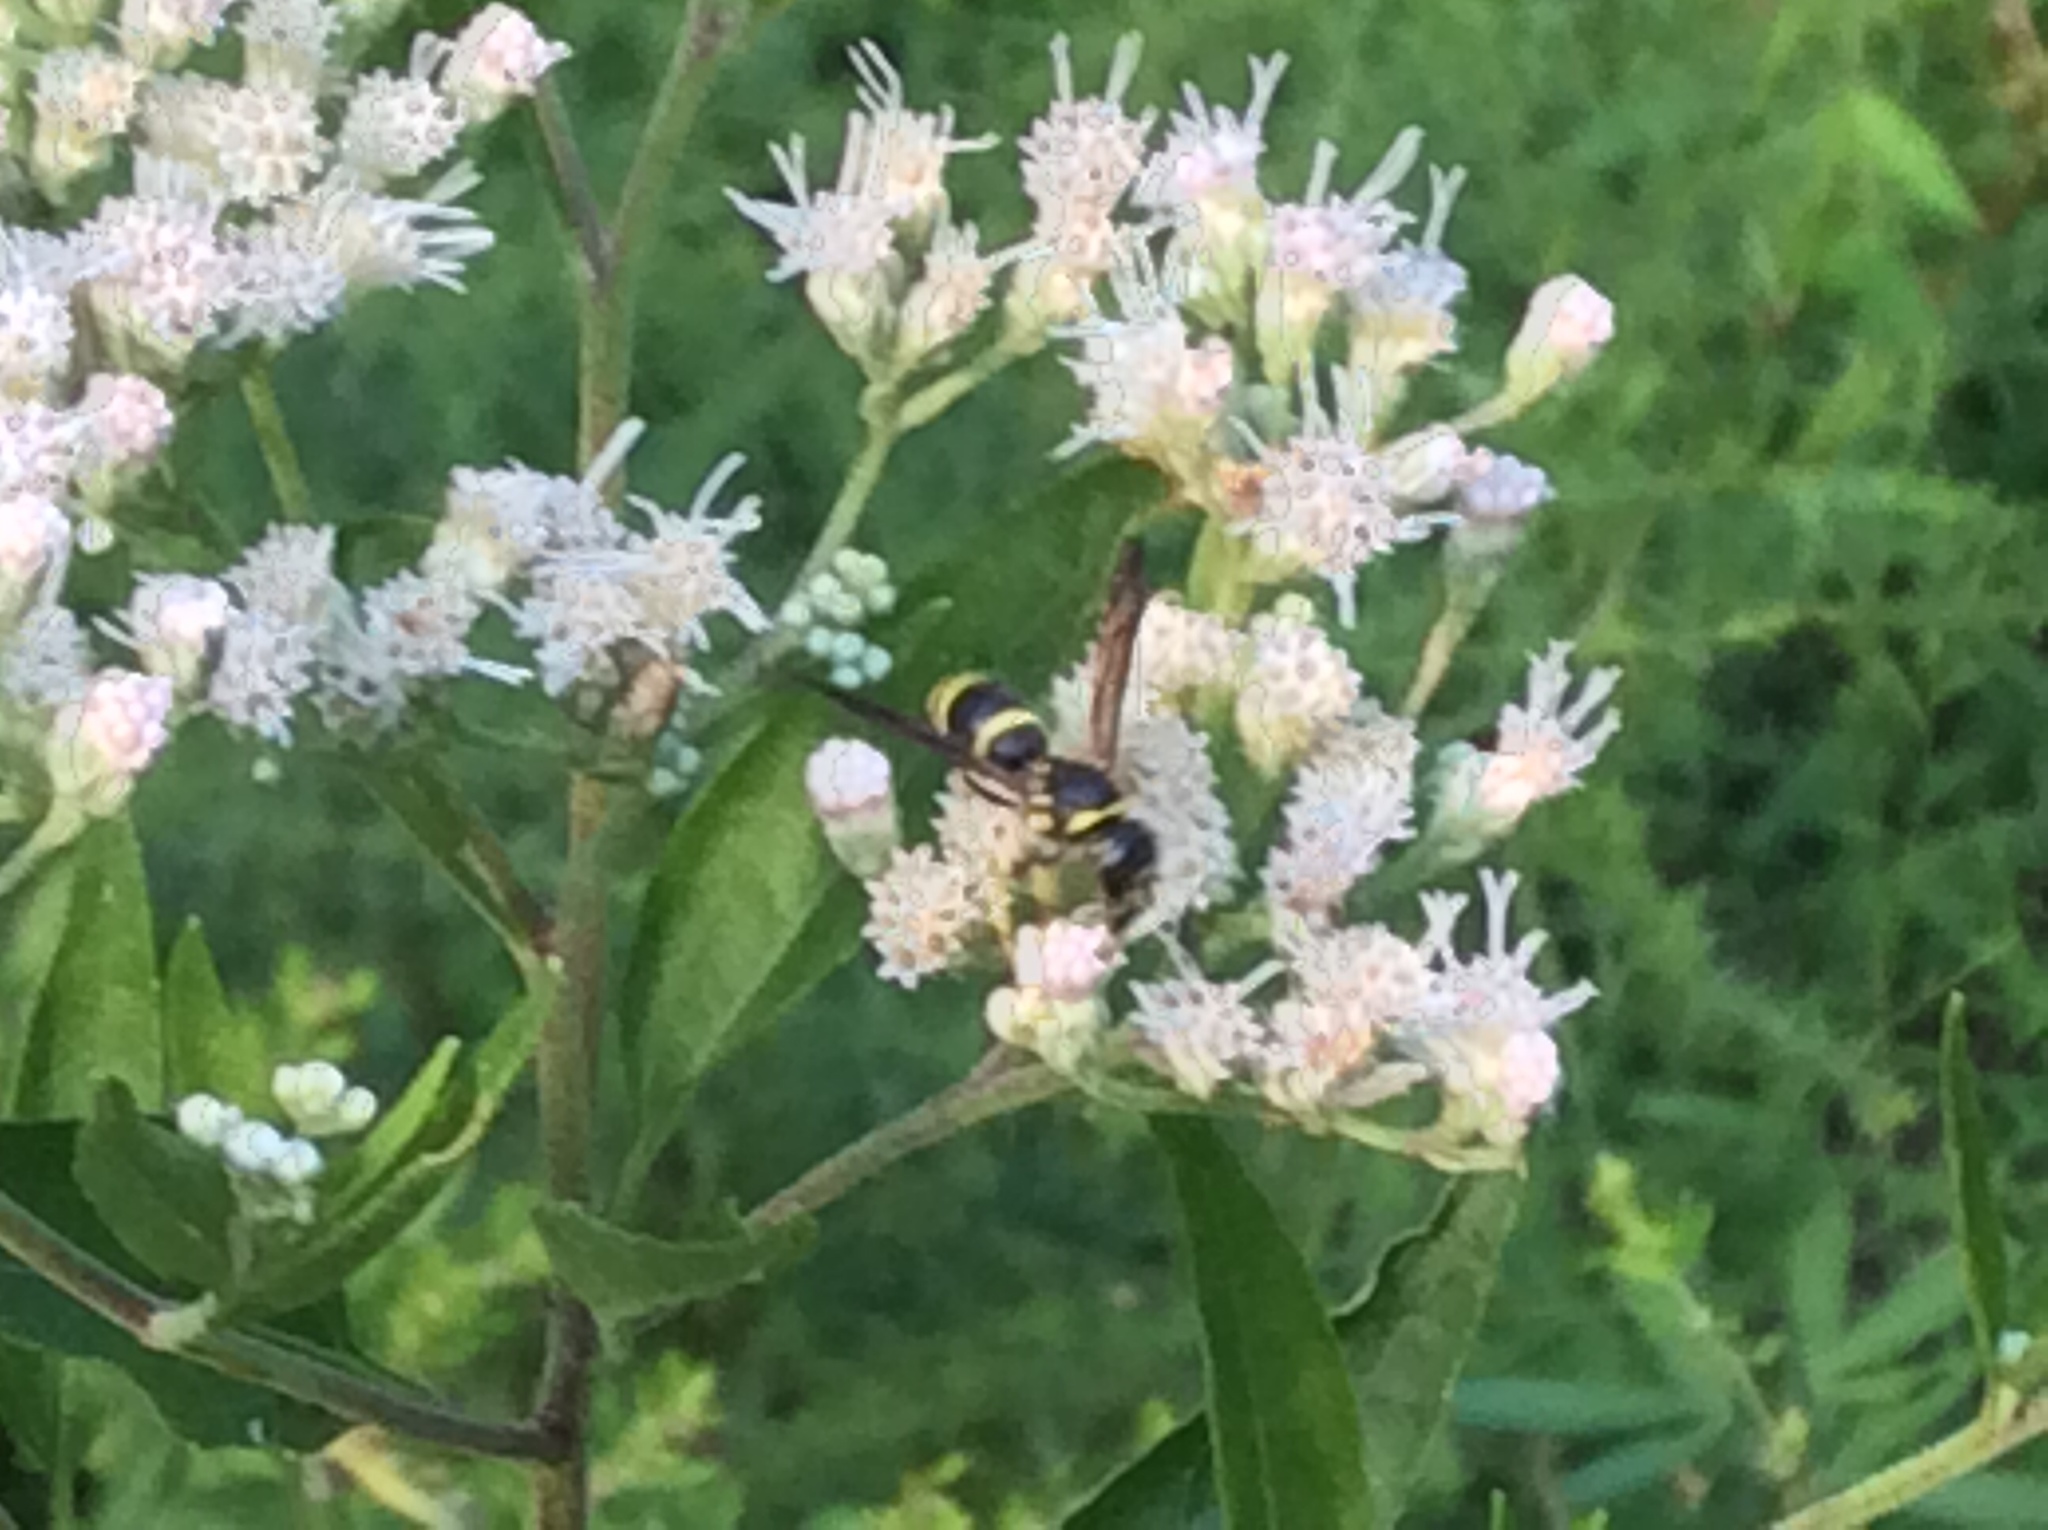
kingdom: Animalia
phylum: Arthropoda
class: Insecta
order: Hymenoptera
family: Vespidae
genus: Ancistrocerus
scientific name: Ancistrocerus adiabatus
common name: Bramble mason wasp
